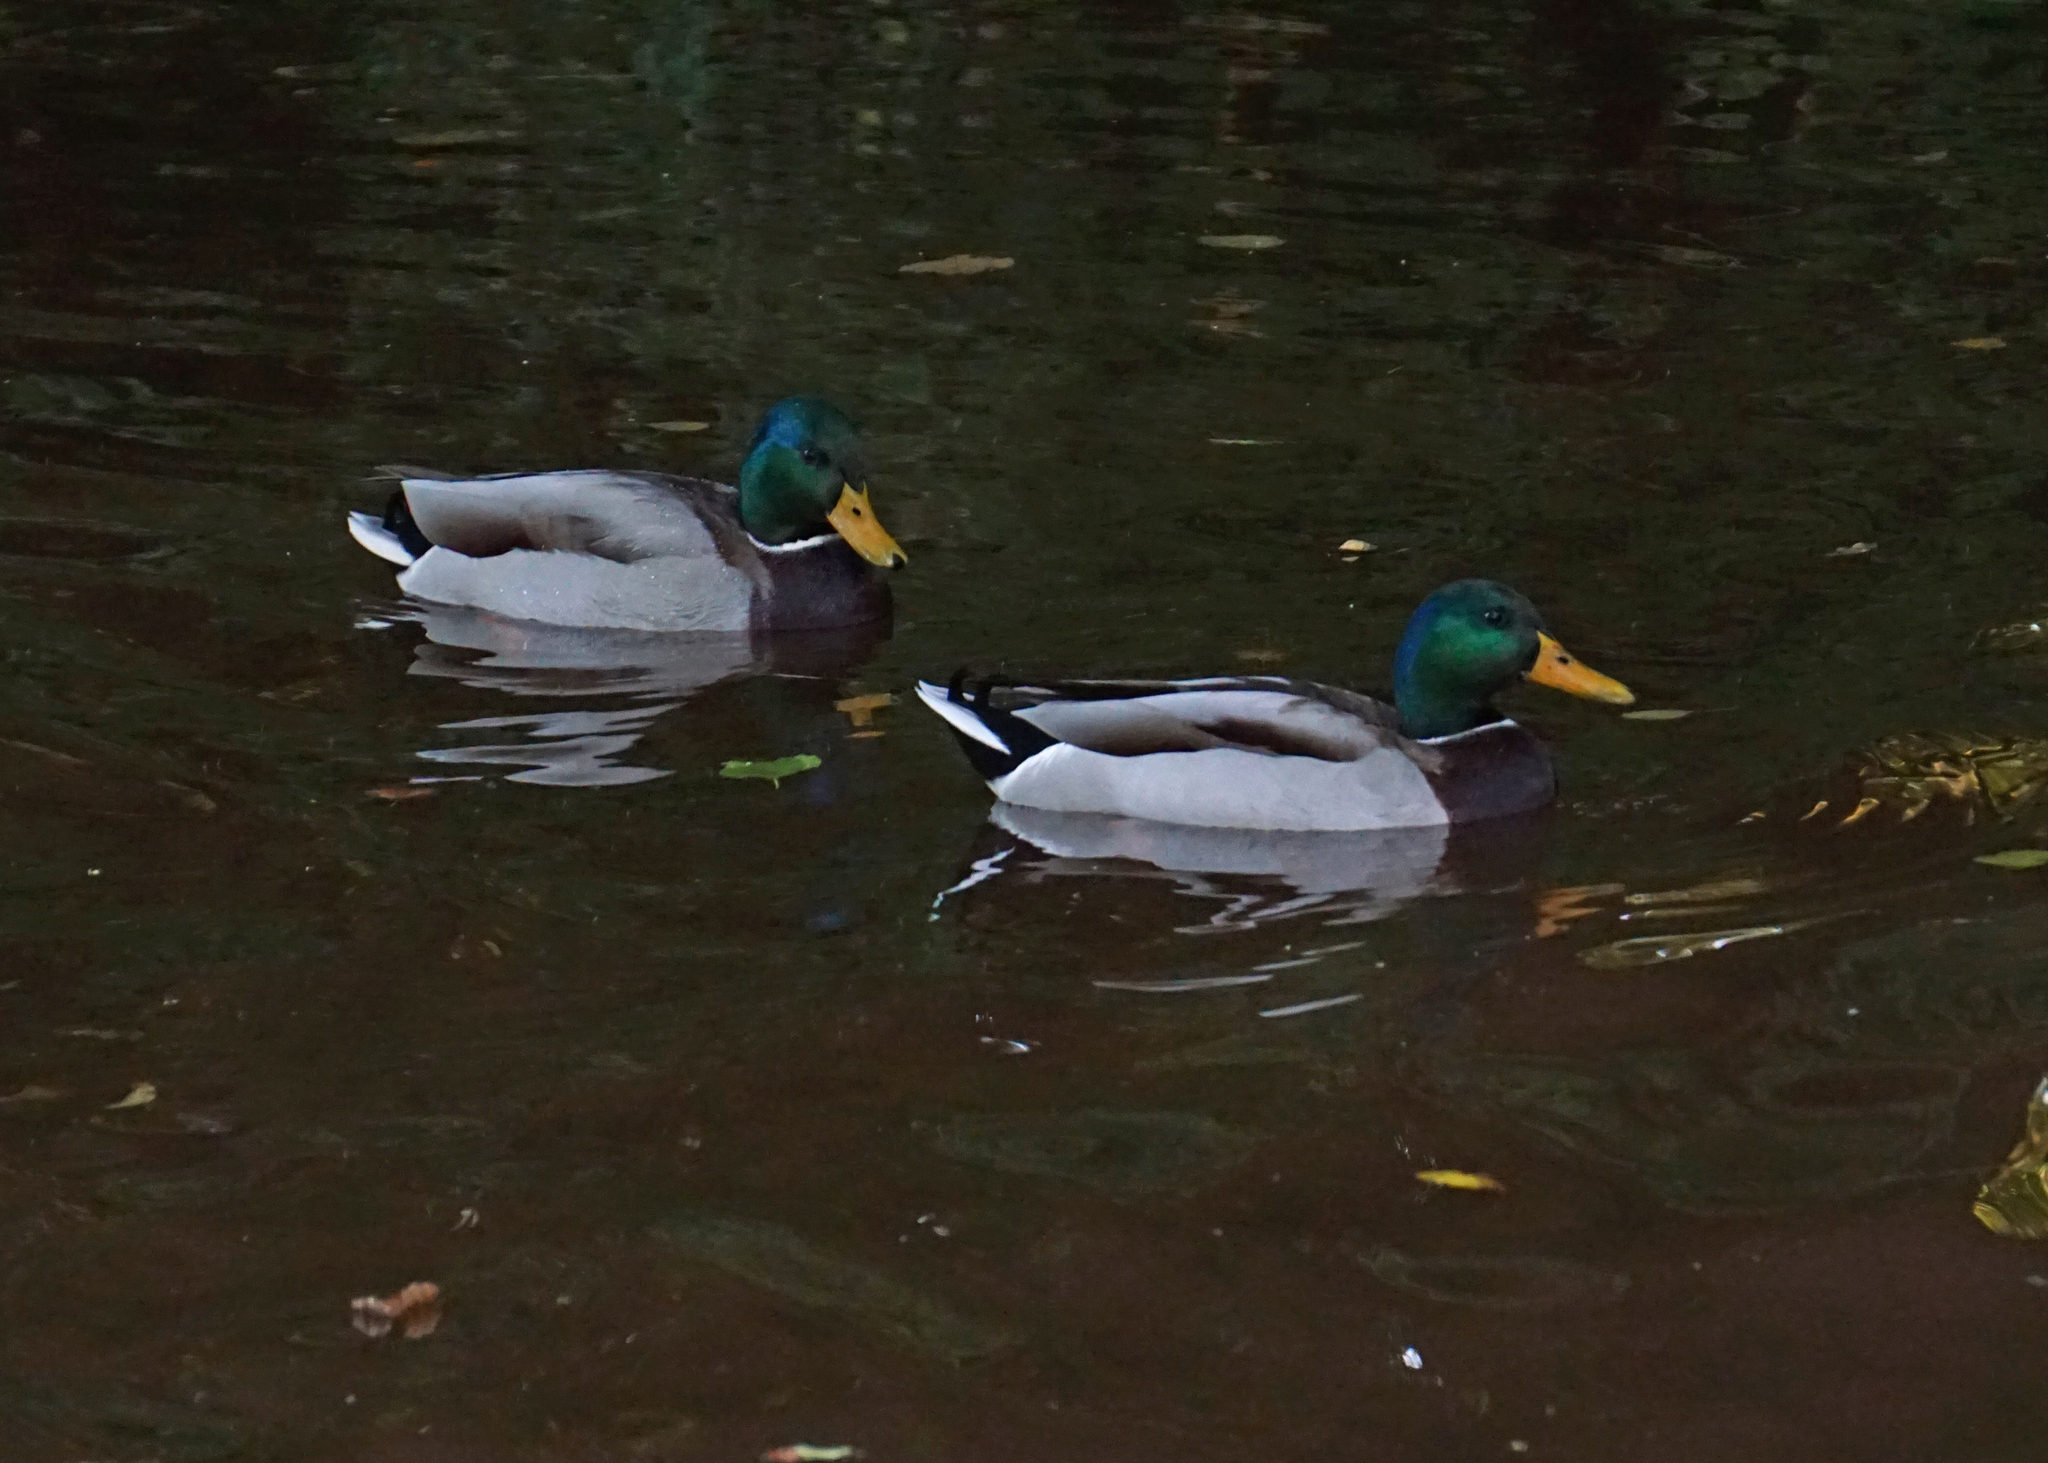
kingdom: Animalia
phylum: Chordata
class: Aves
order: Anseriformes
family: Anatidae
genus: Anas
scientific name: Anas platyrhynchos
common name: Mallard
